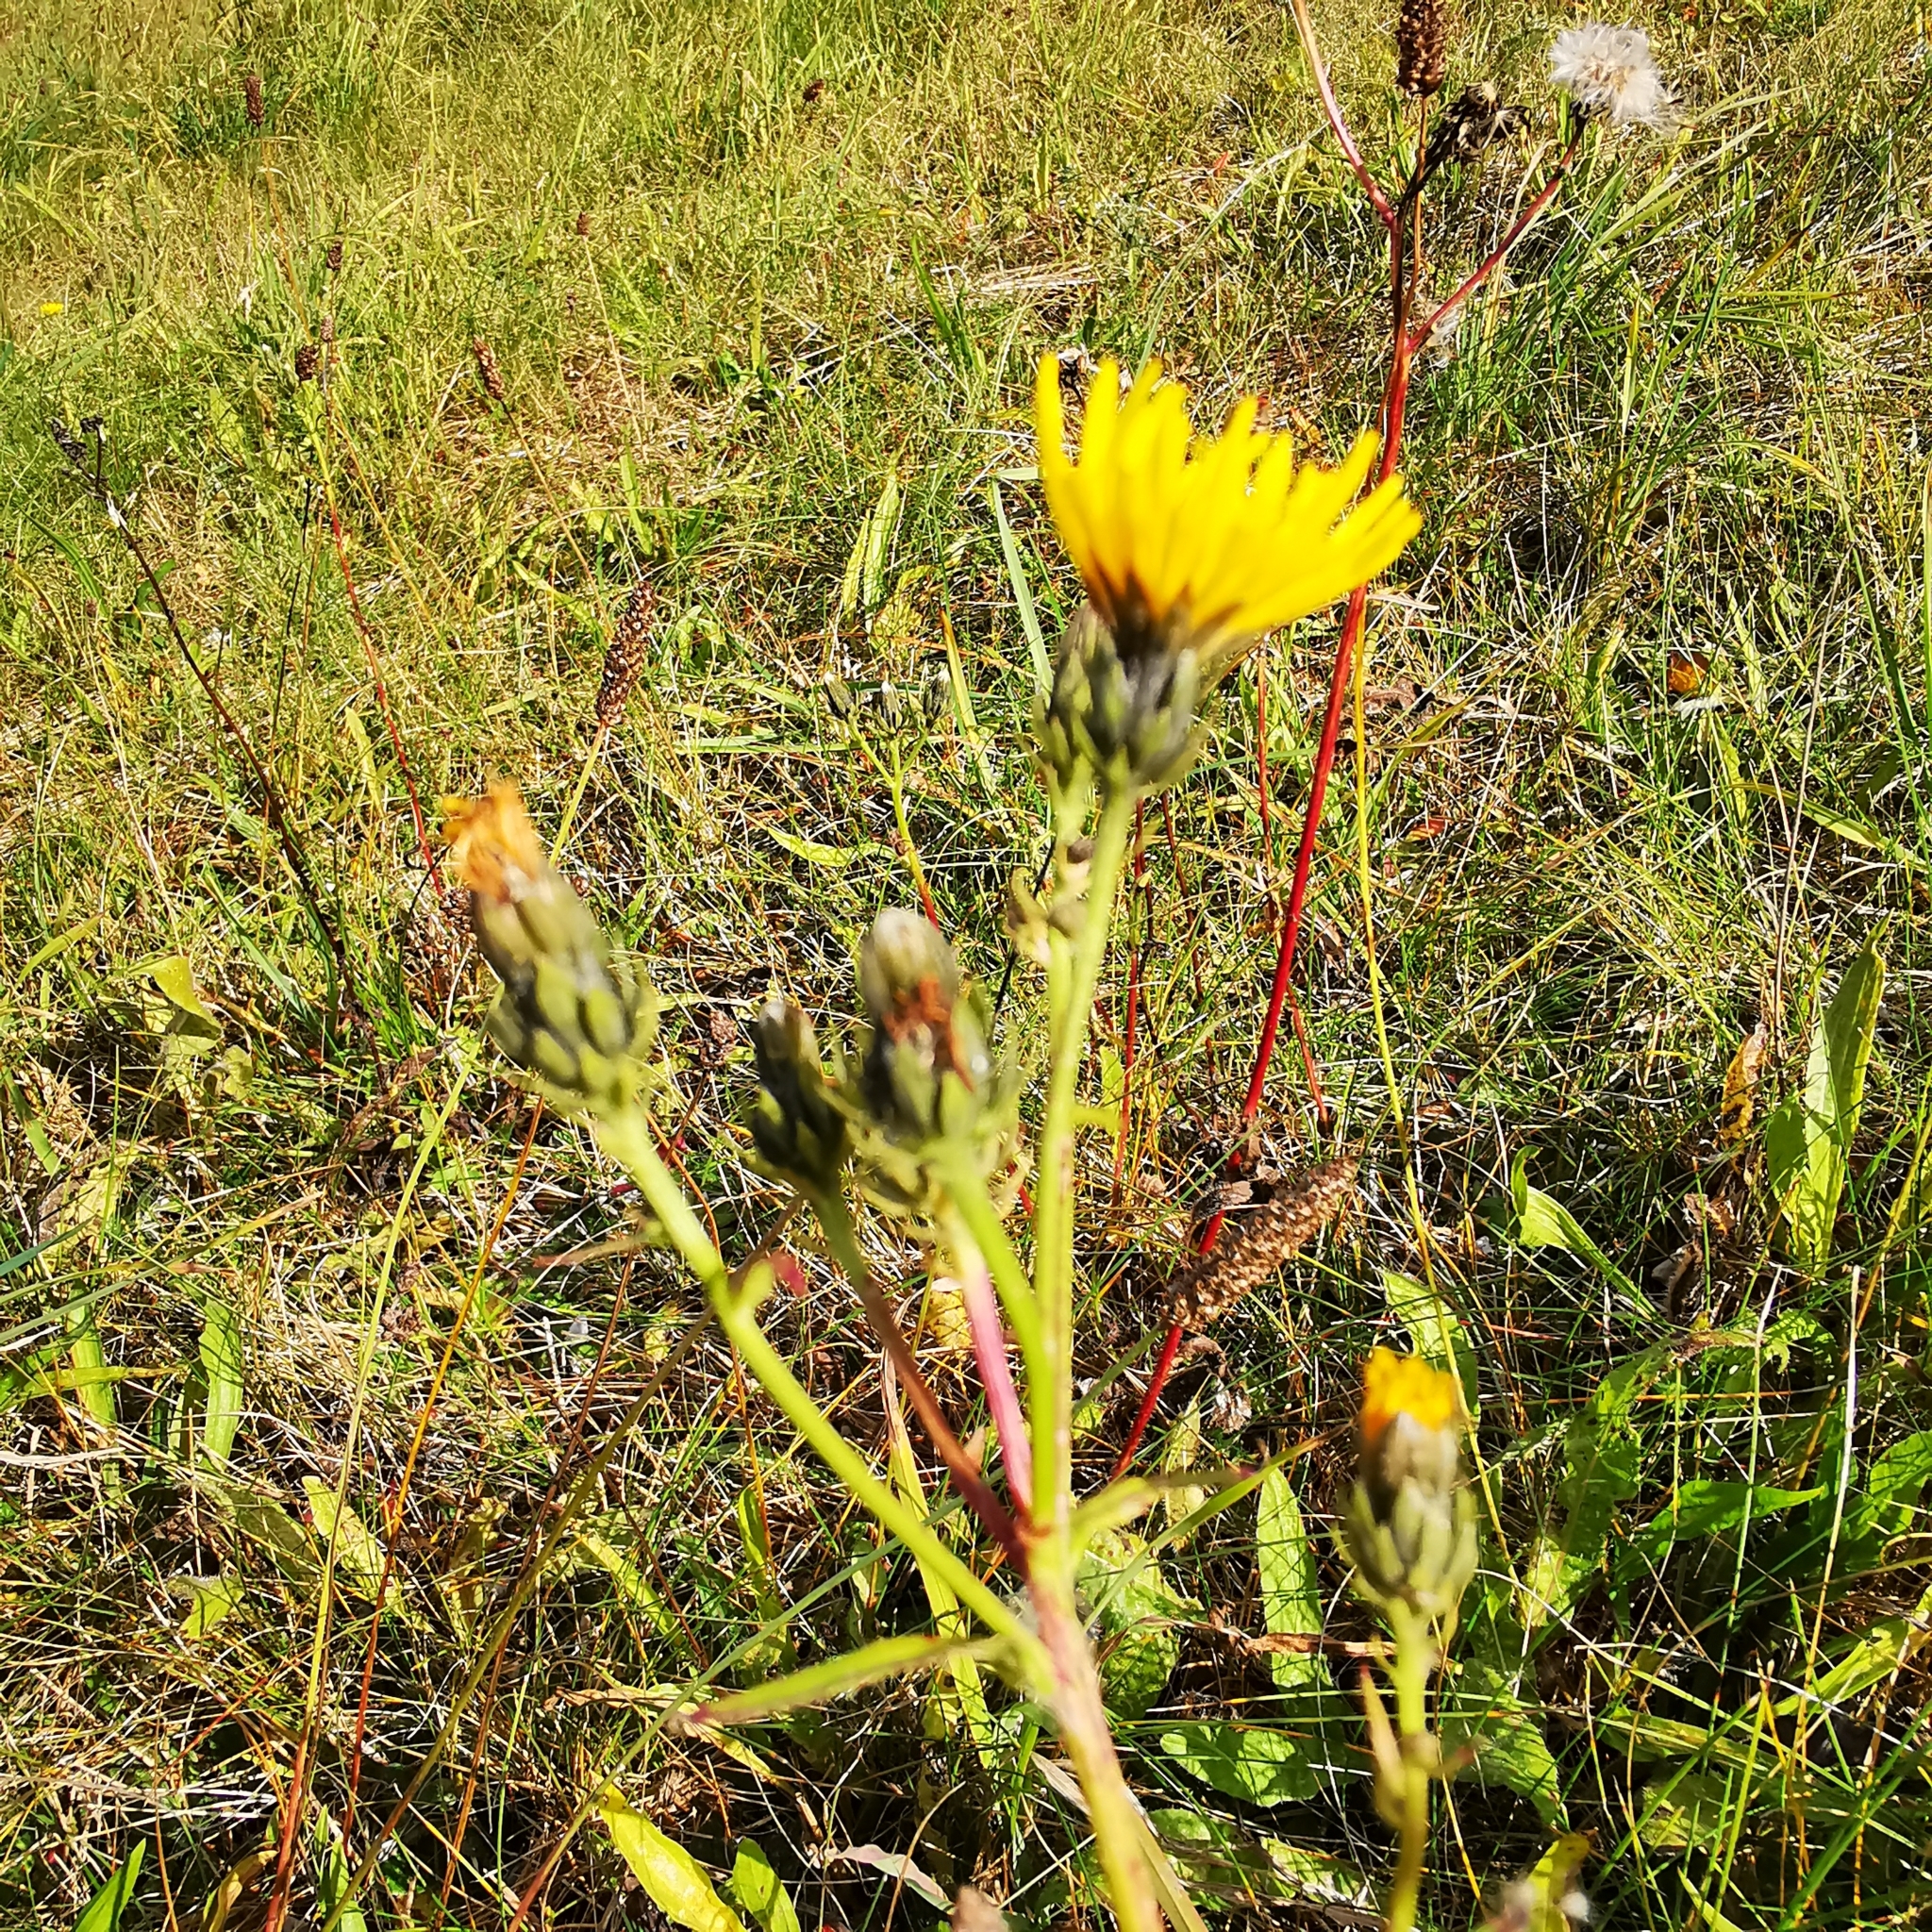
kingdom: Plantae
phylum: Tracheophyta
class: Magnoliopsida
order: Asterales
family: Asteraceae
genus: Picris
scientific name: Picris hieracioides
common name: Hawkweed oxtongue
